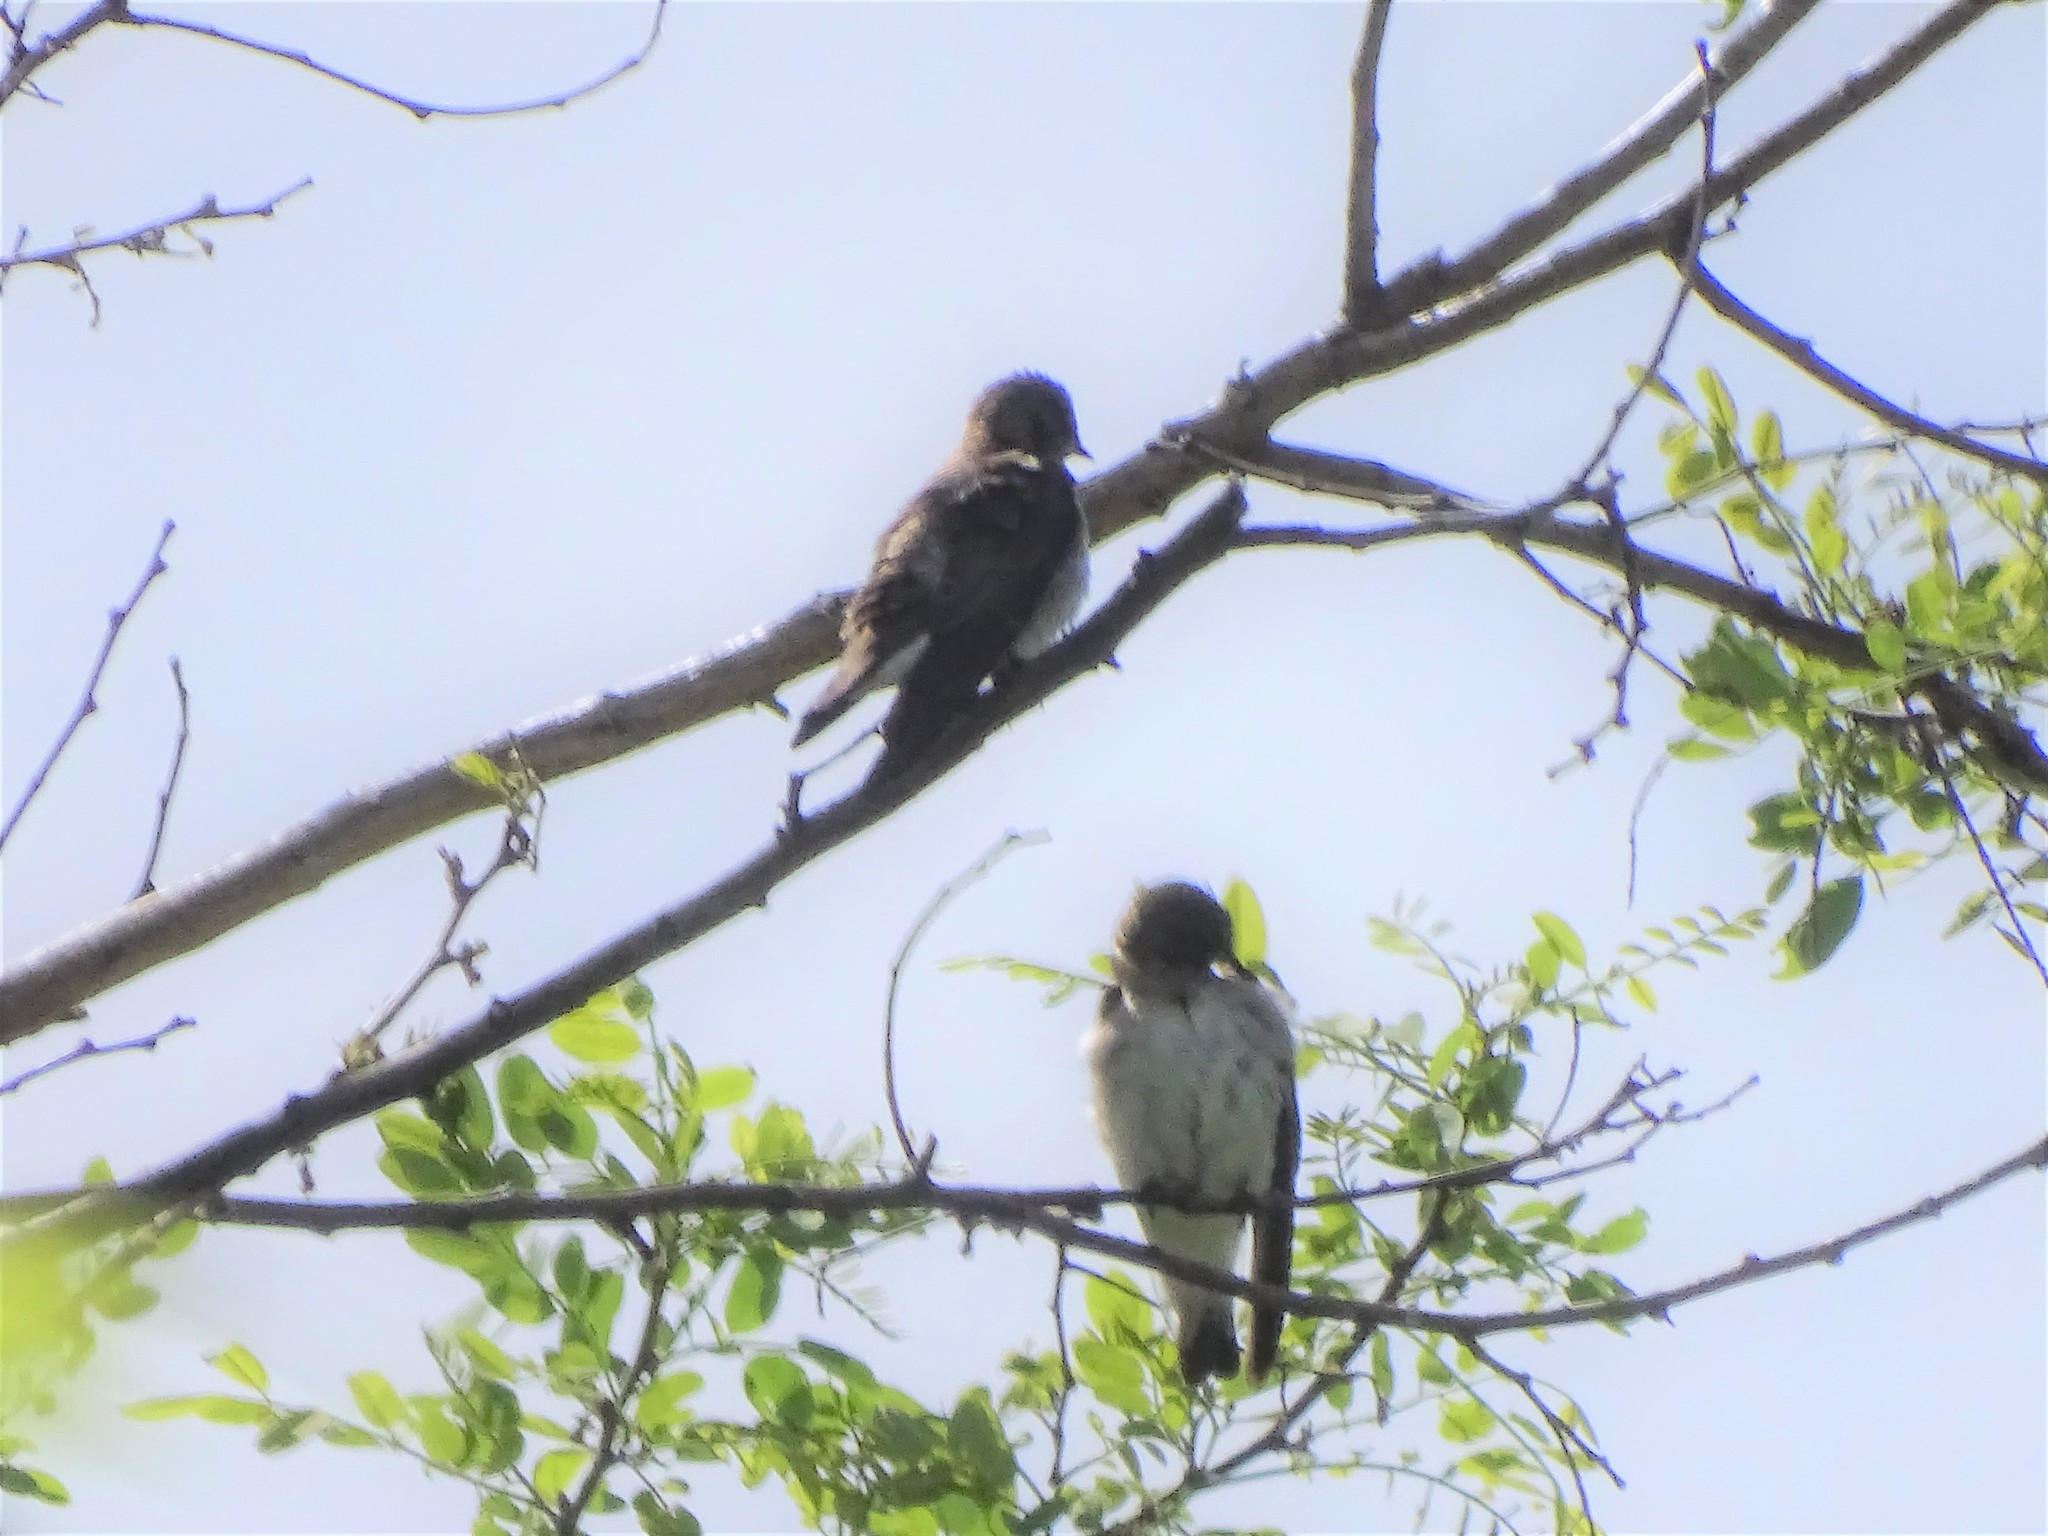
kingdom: Animalia
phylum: Chordata
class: Aves
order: Passeriformes
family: Hirundinidae
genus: Stelgidopteryx
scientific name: Stelgidopteryx serripennis
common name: Northern rough-winged swallow
